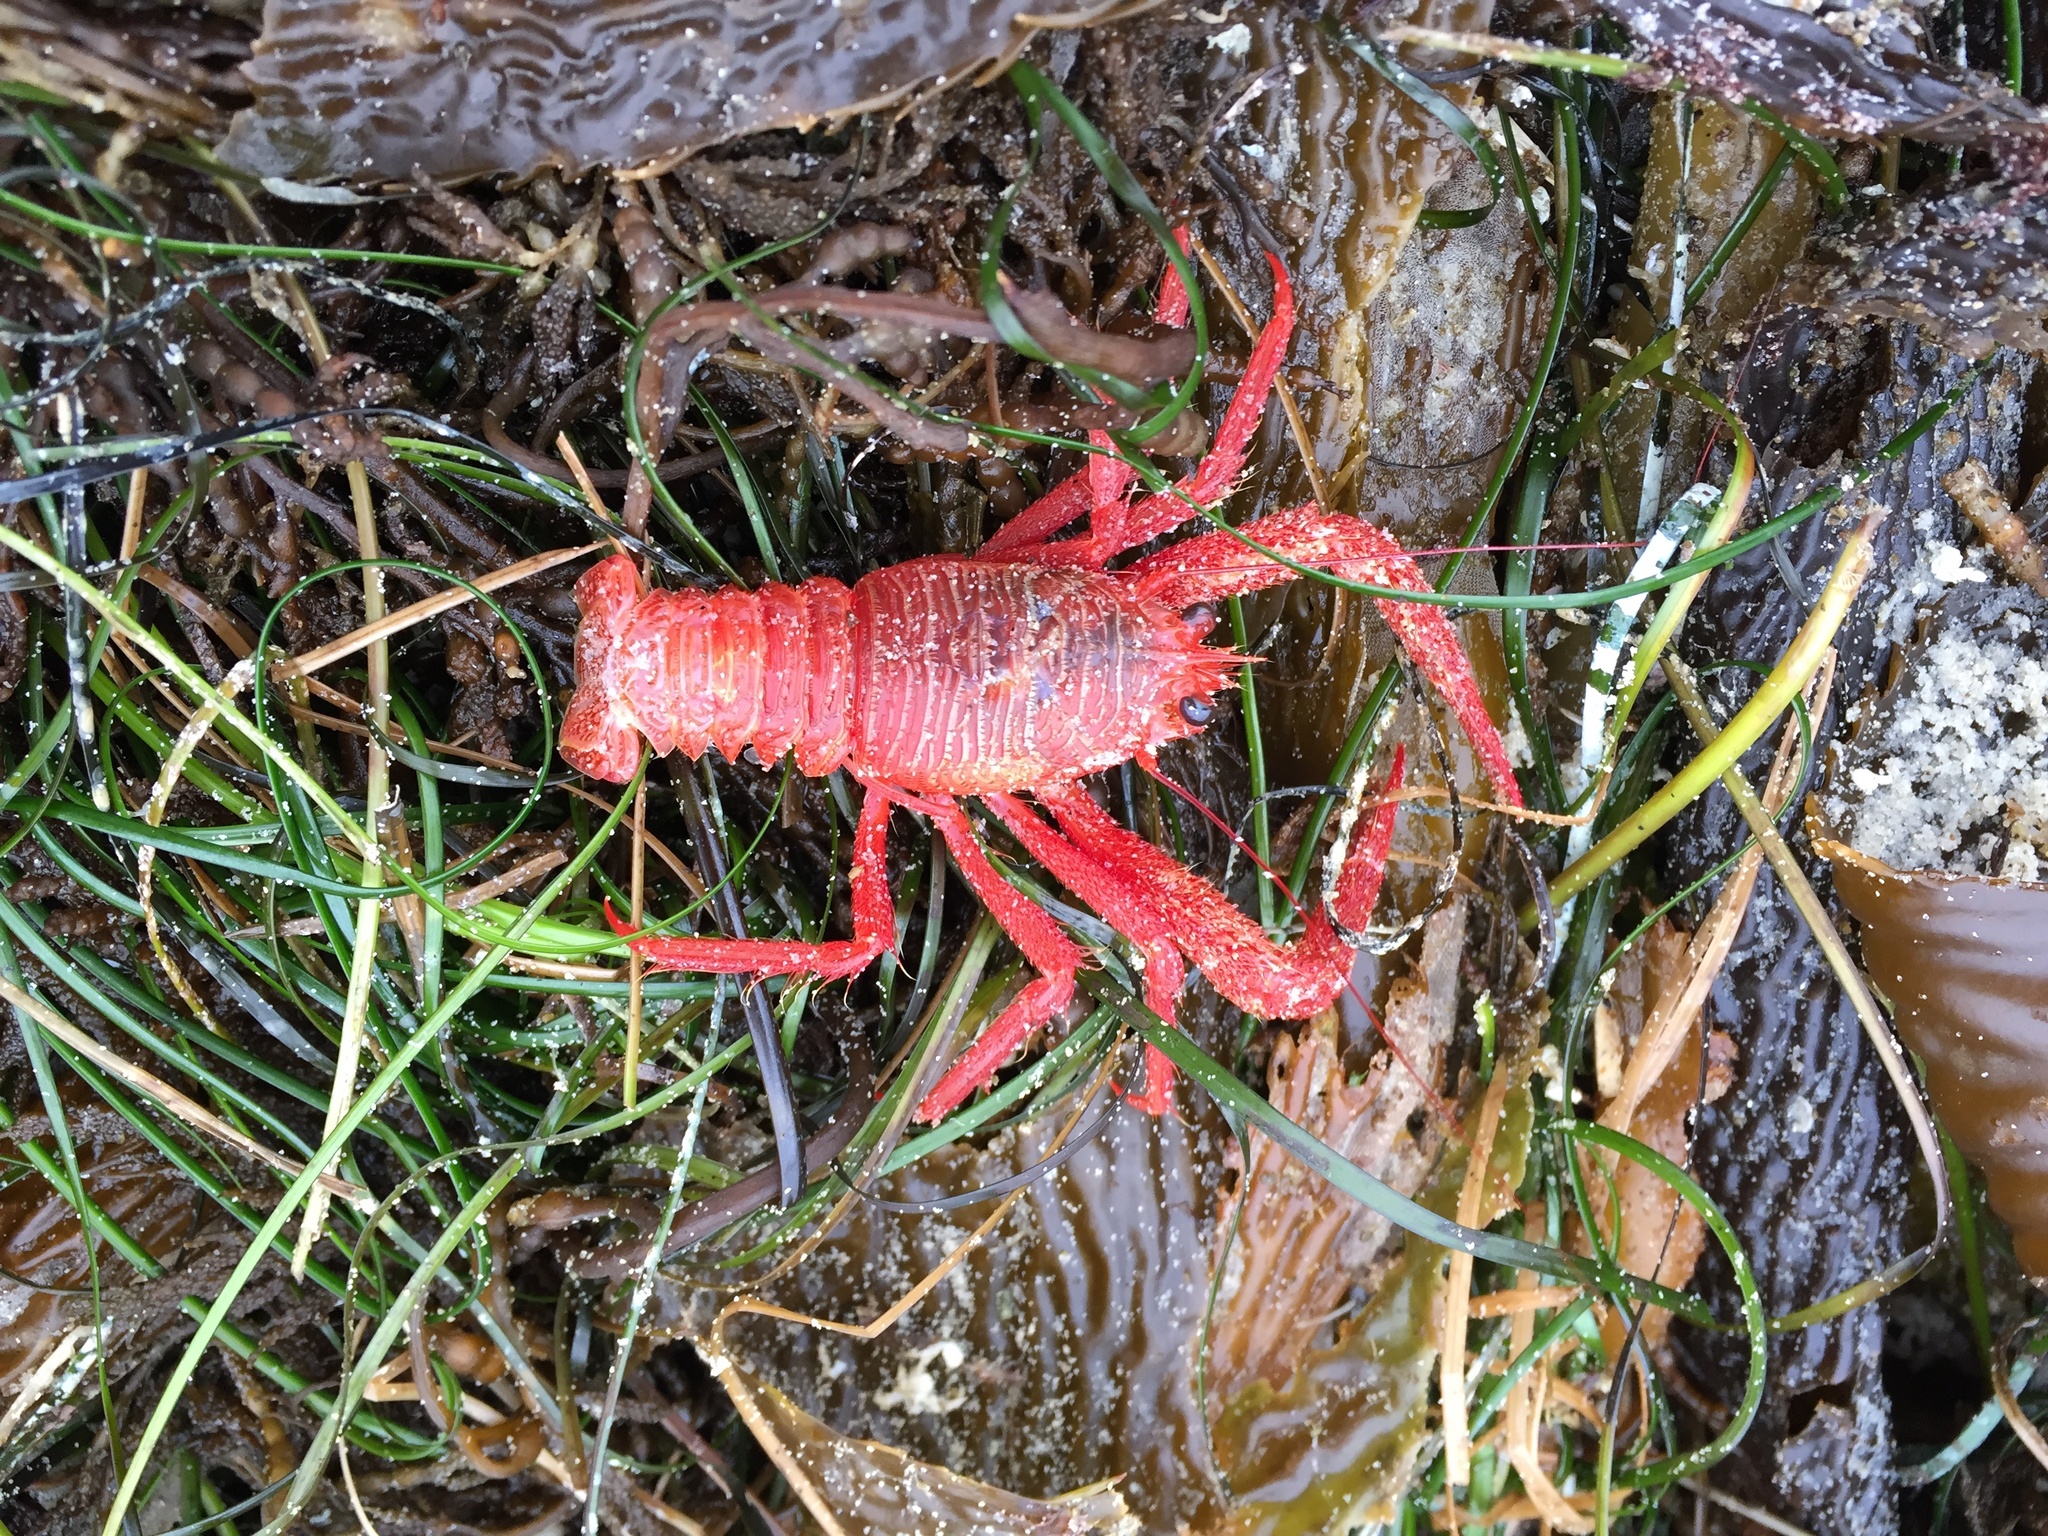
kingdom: Animalia
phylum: Arthropoda
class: Malacostraca
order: Decapoda
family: Munididae
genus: Grimothea
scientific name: Grimothea planipes
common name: Pelagic red crab
